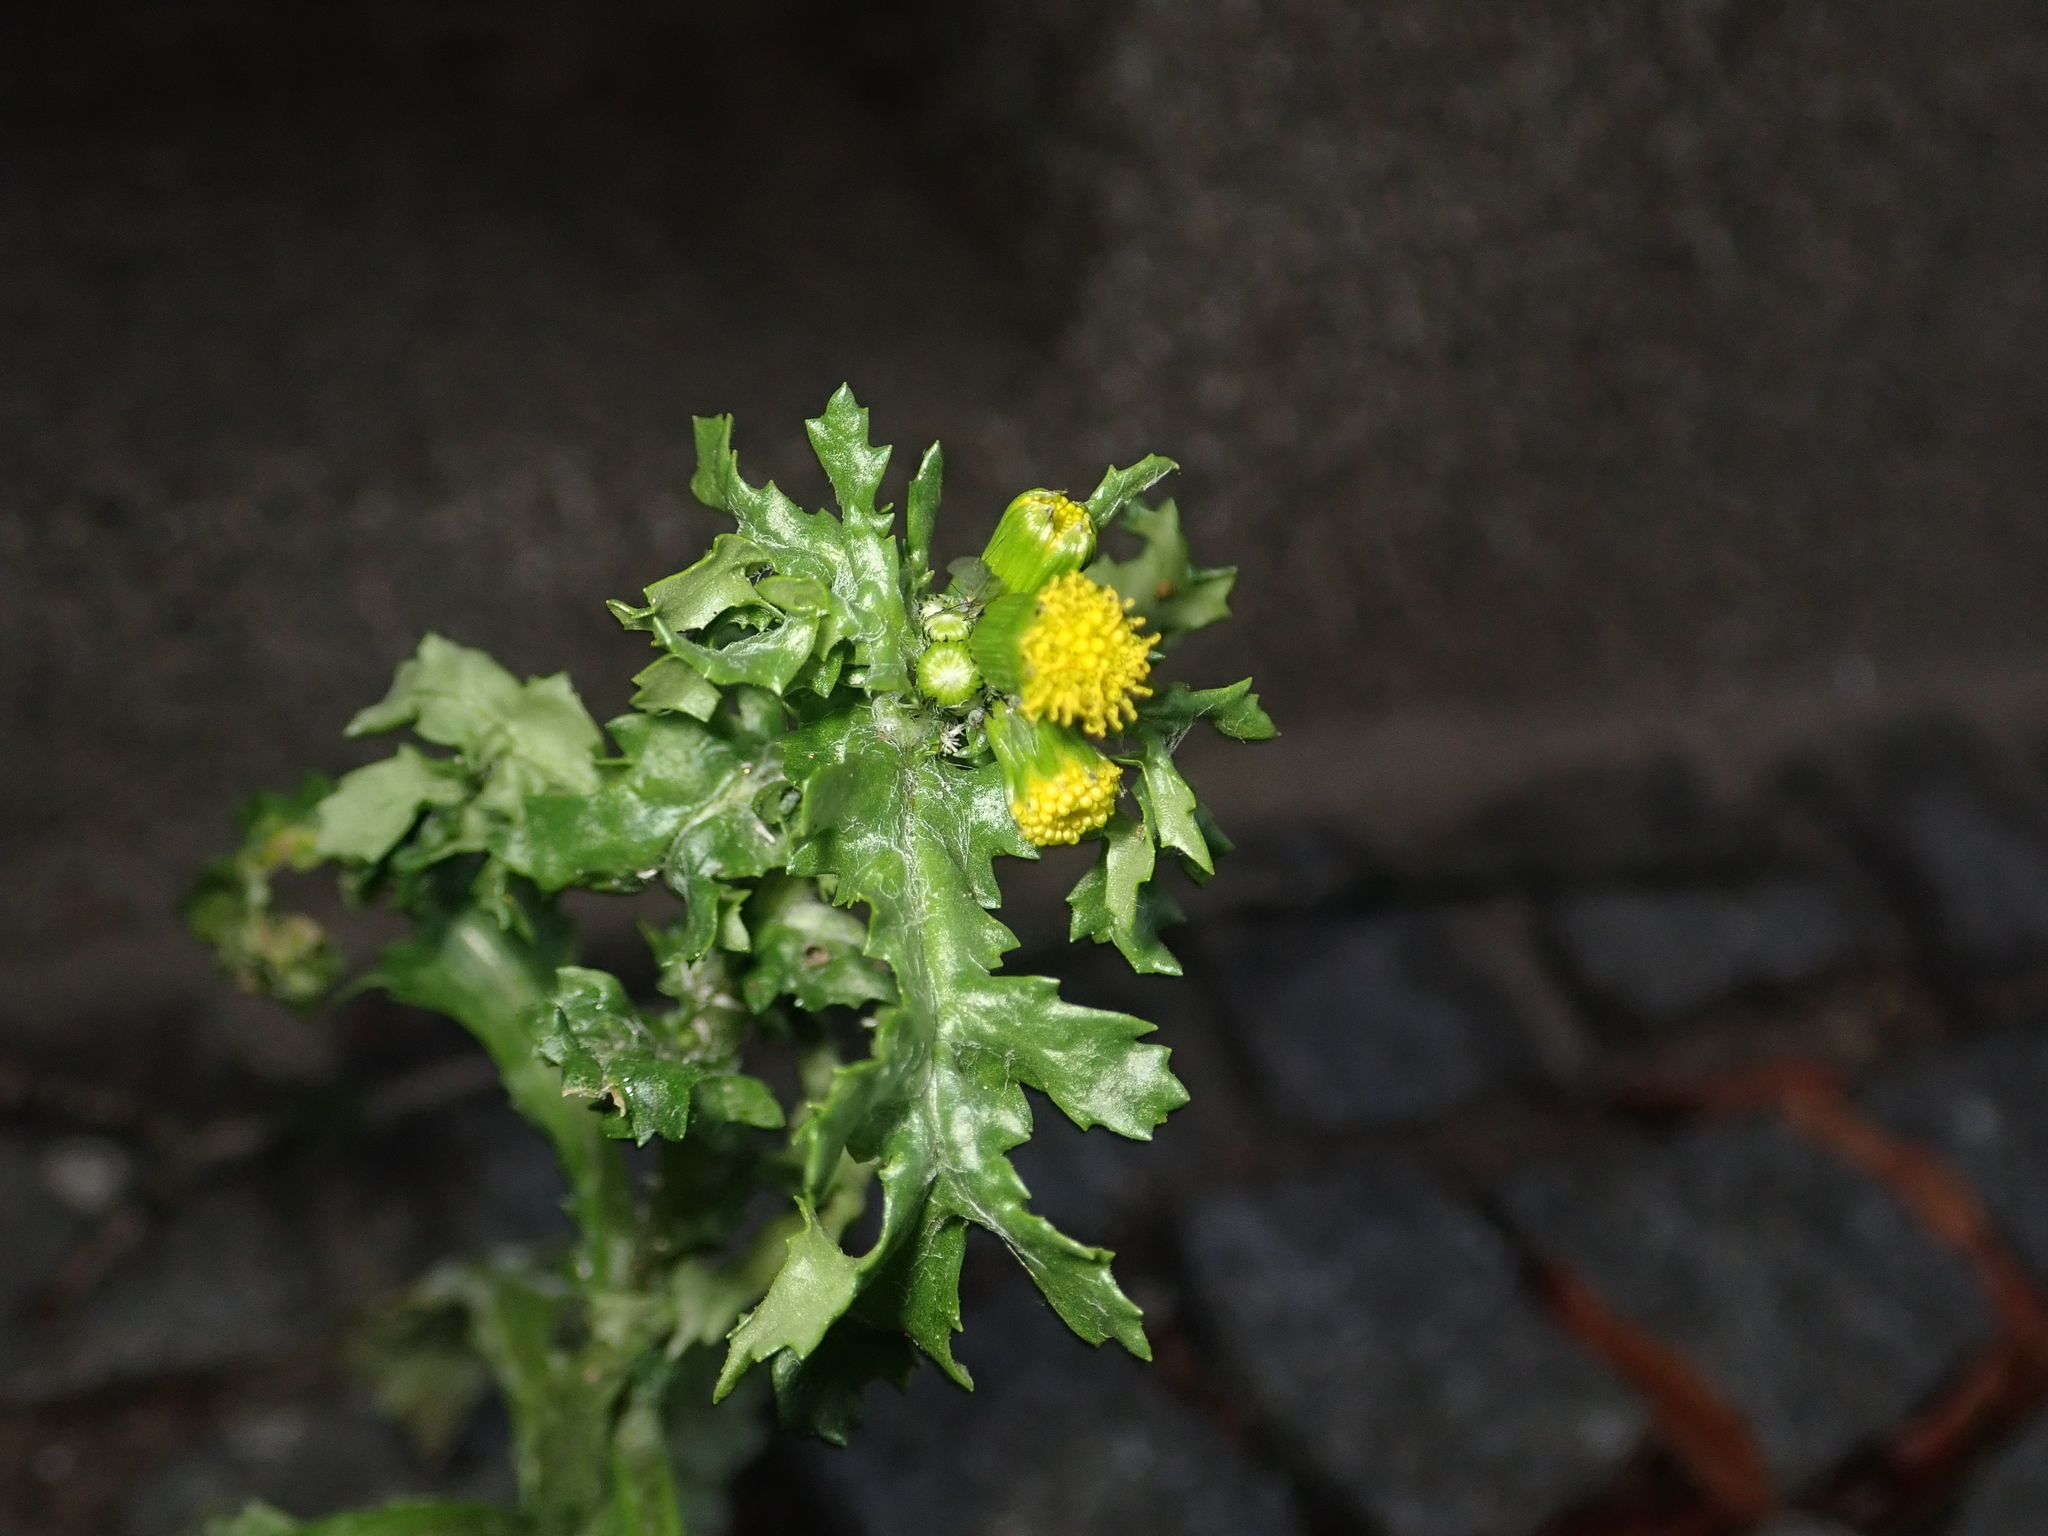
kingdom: Plantae
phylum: Tracheophyta
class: Magnoliopsida
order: Asterales
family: Asteraceae
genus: Senecio
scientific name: Senecio vulgaris
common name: Old-man-in-the-spring
